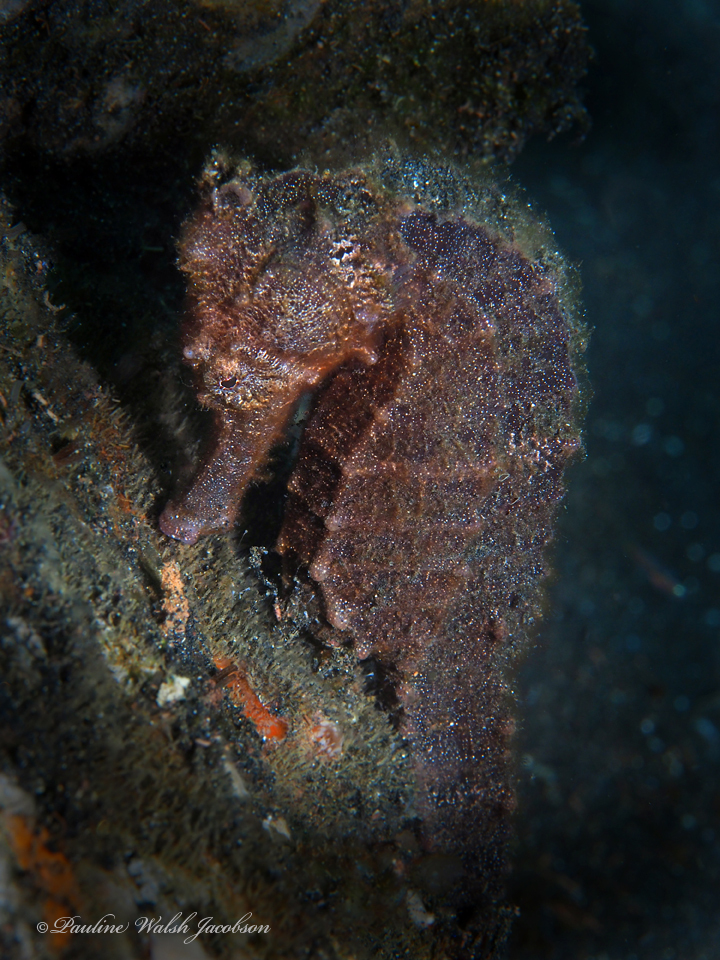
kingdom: Animalia
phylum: Chordata
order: Syngnathiformes
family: Syngnathidae
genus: Hippocampus
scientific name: Hippocampus kuda
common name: Spotted seahorse
